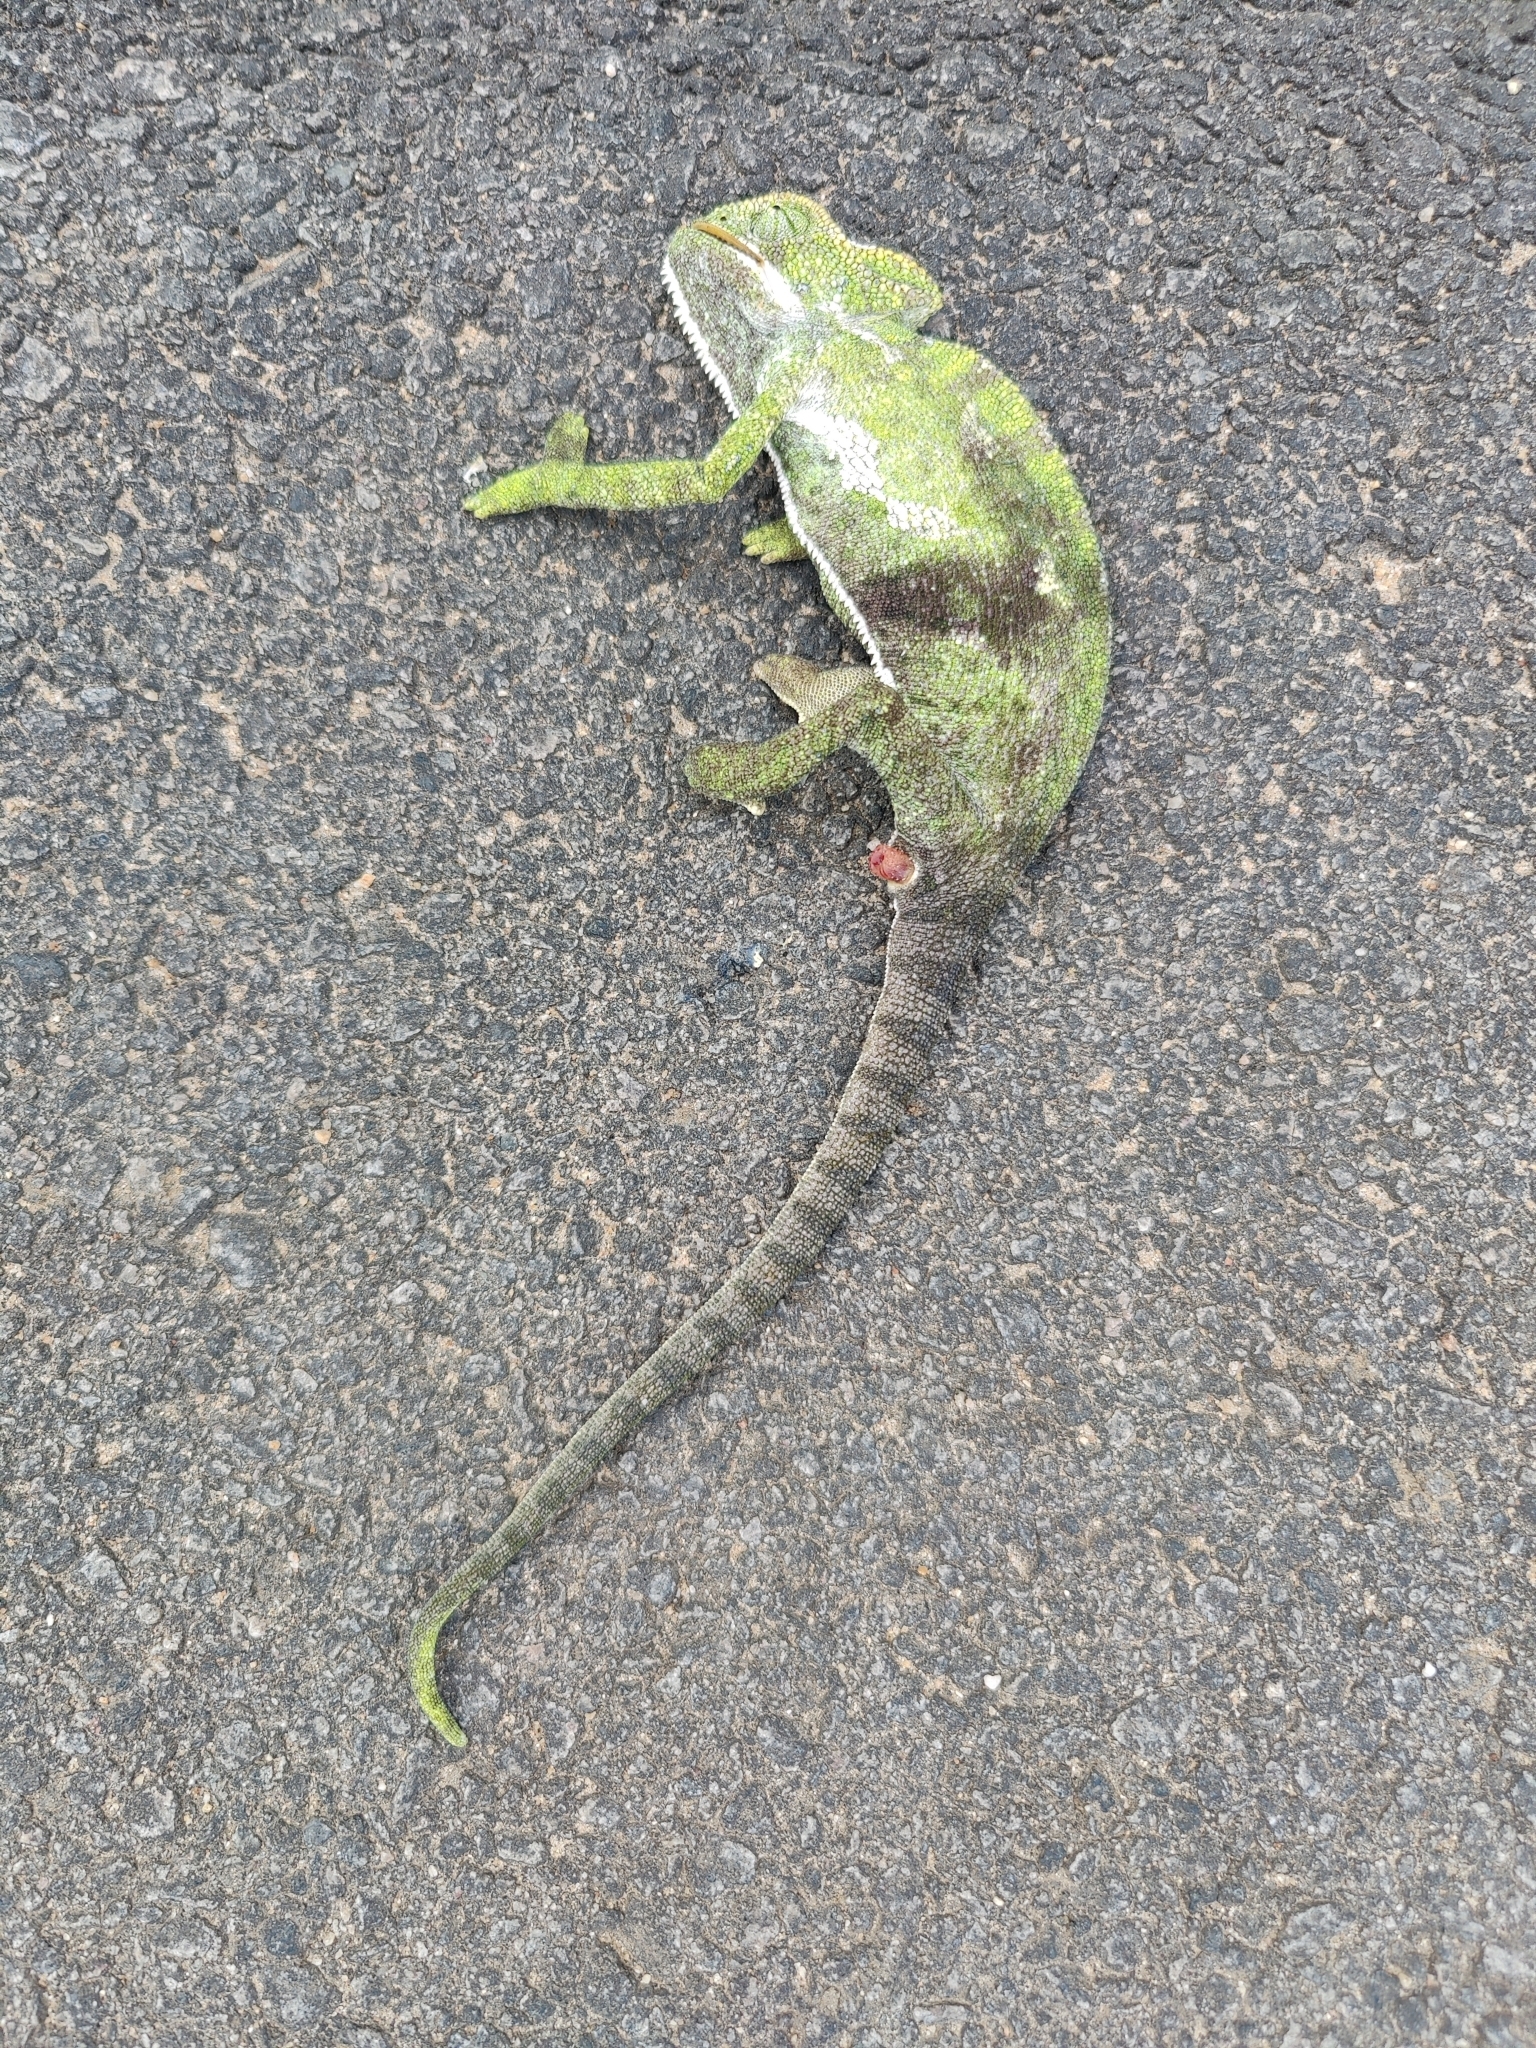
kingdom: Animalia
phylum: Chordata
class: Squamata
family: Chamaeleonidae
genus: Chamaeleo
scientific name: Chamaeleo zeylanicus
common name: Indian chameleon
